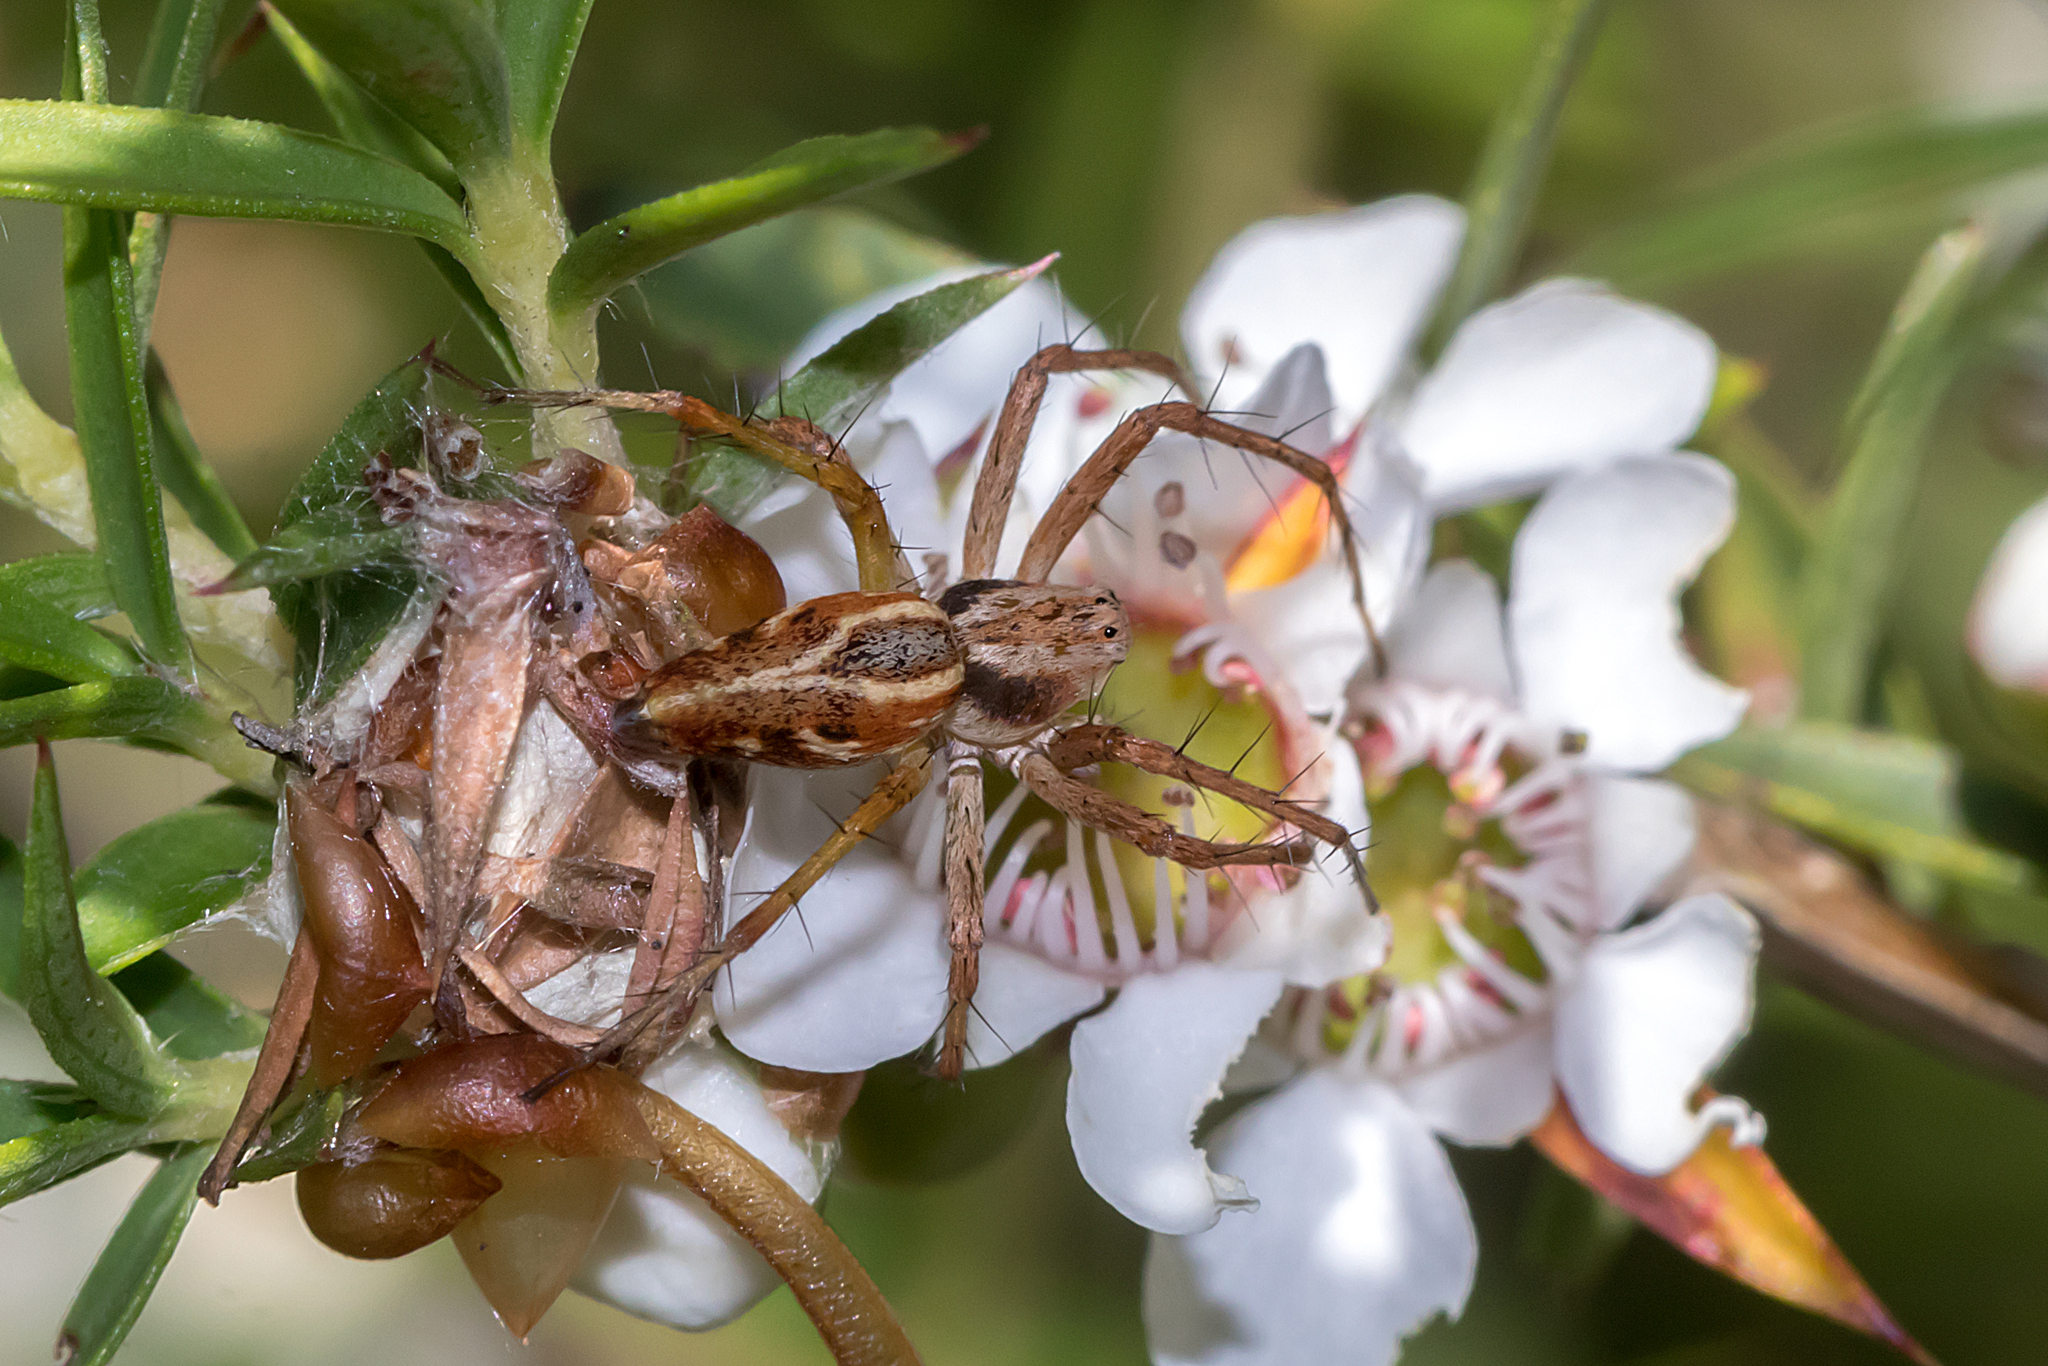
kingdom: Animalia
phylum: Arthropoda
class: Arachnida
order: Araneae
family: Oxyopidae
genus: Oxyopes
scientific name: Oxyopes amoenus
